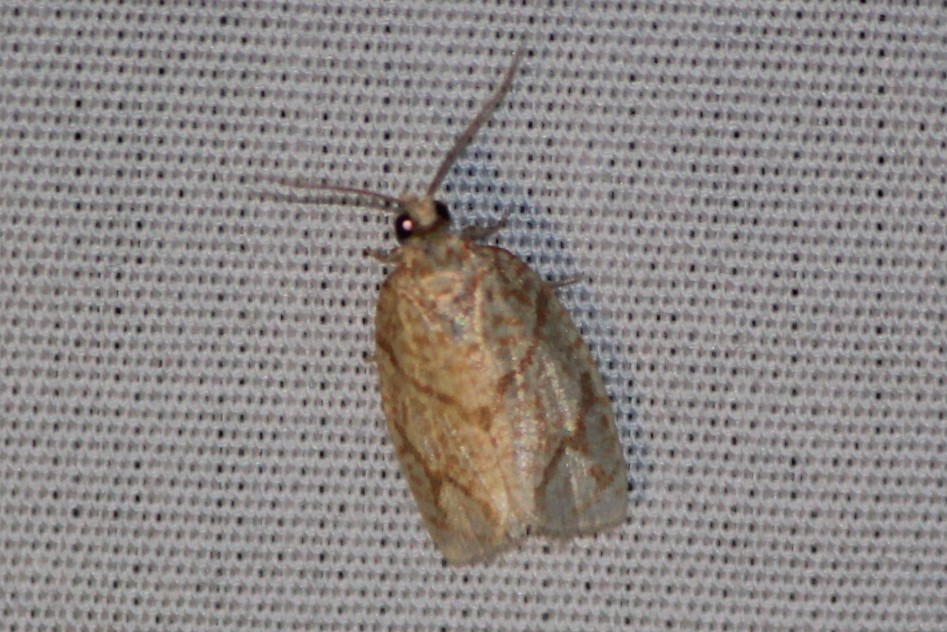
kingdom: Animalia
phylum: Arthropoda
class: Insecta
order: Lepidoptera
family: Tortricidae
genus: Argyrotaenia
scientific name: Argyrotaenia quercifoliana
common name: Yellow-winged oak leafroller moth
